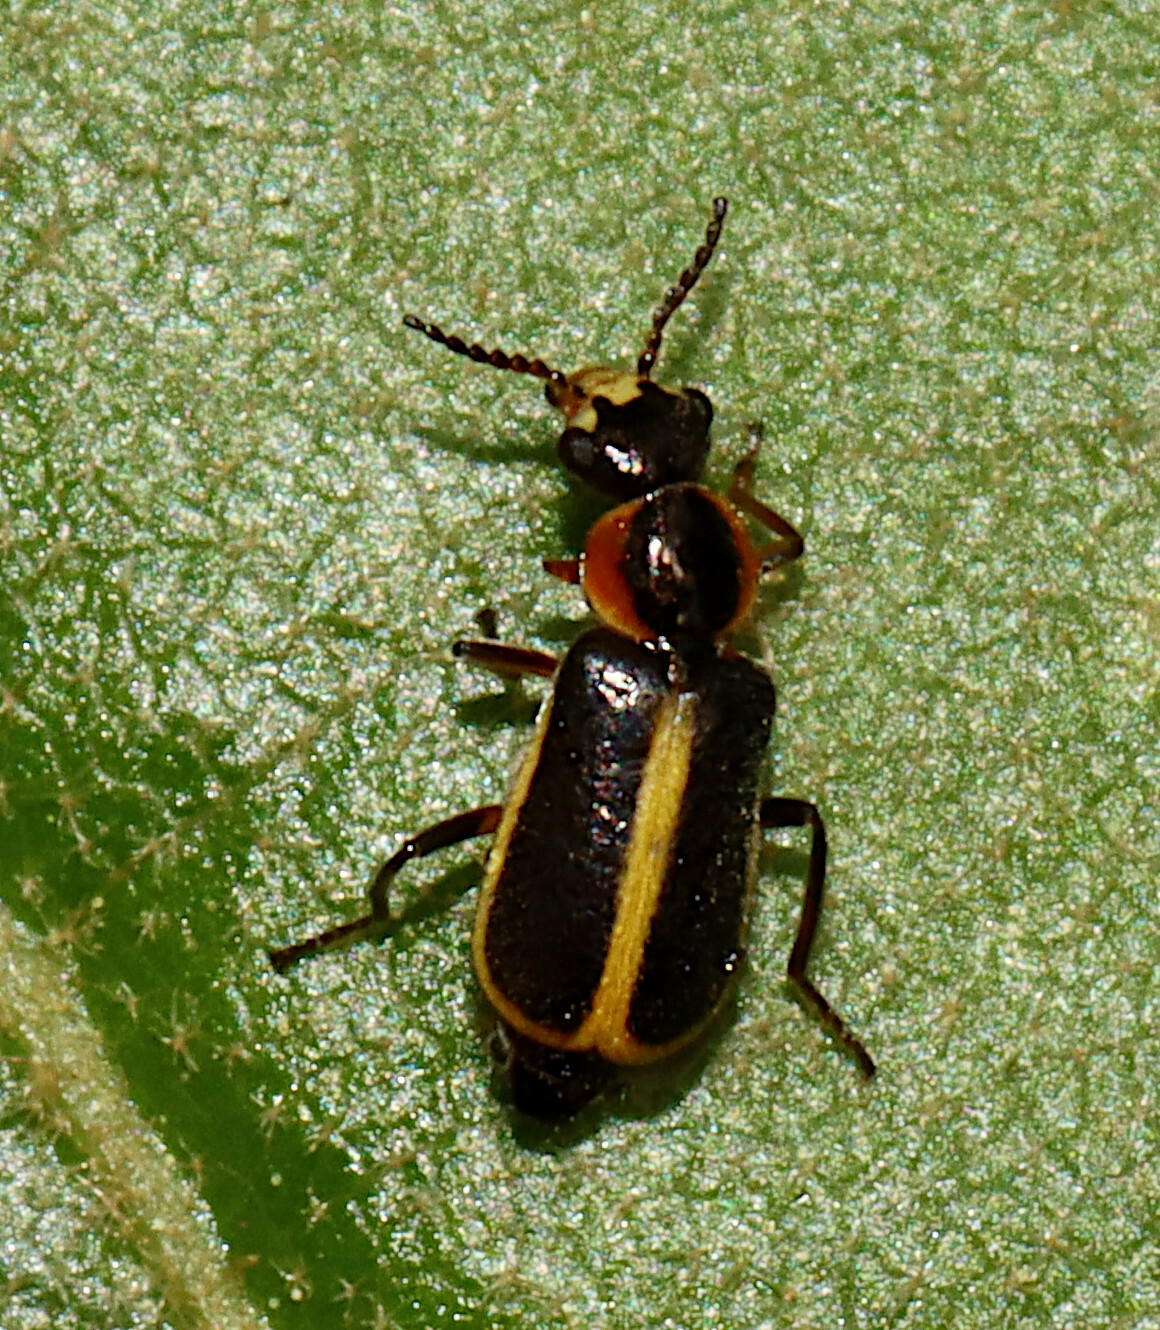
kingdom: Animalia
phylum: Arthropoda
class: Insecta
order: Coleoptera
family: Malachiidae
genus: Attalus
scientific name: Attalus
